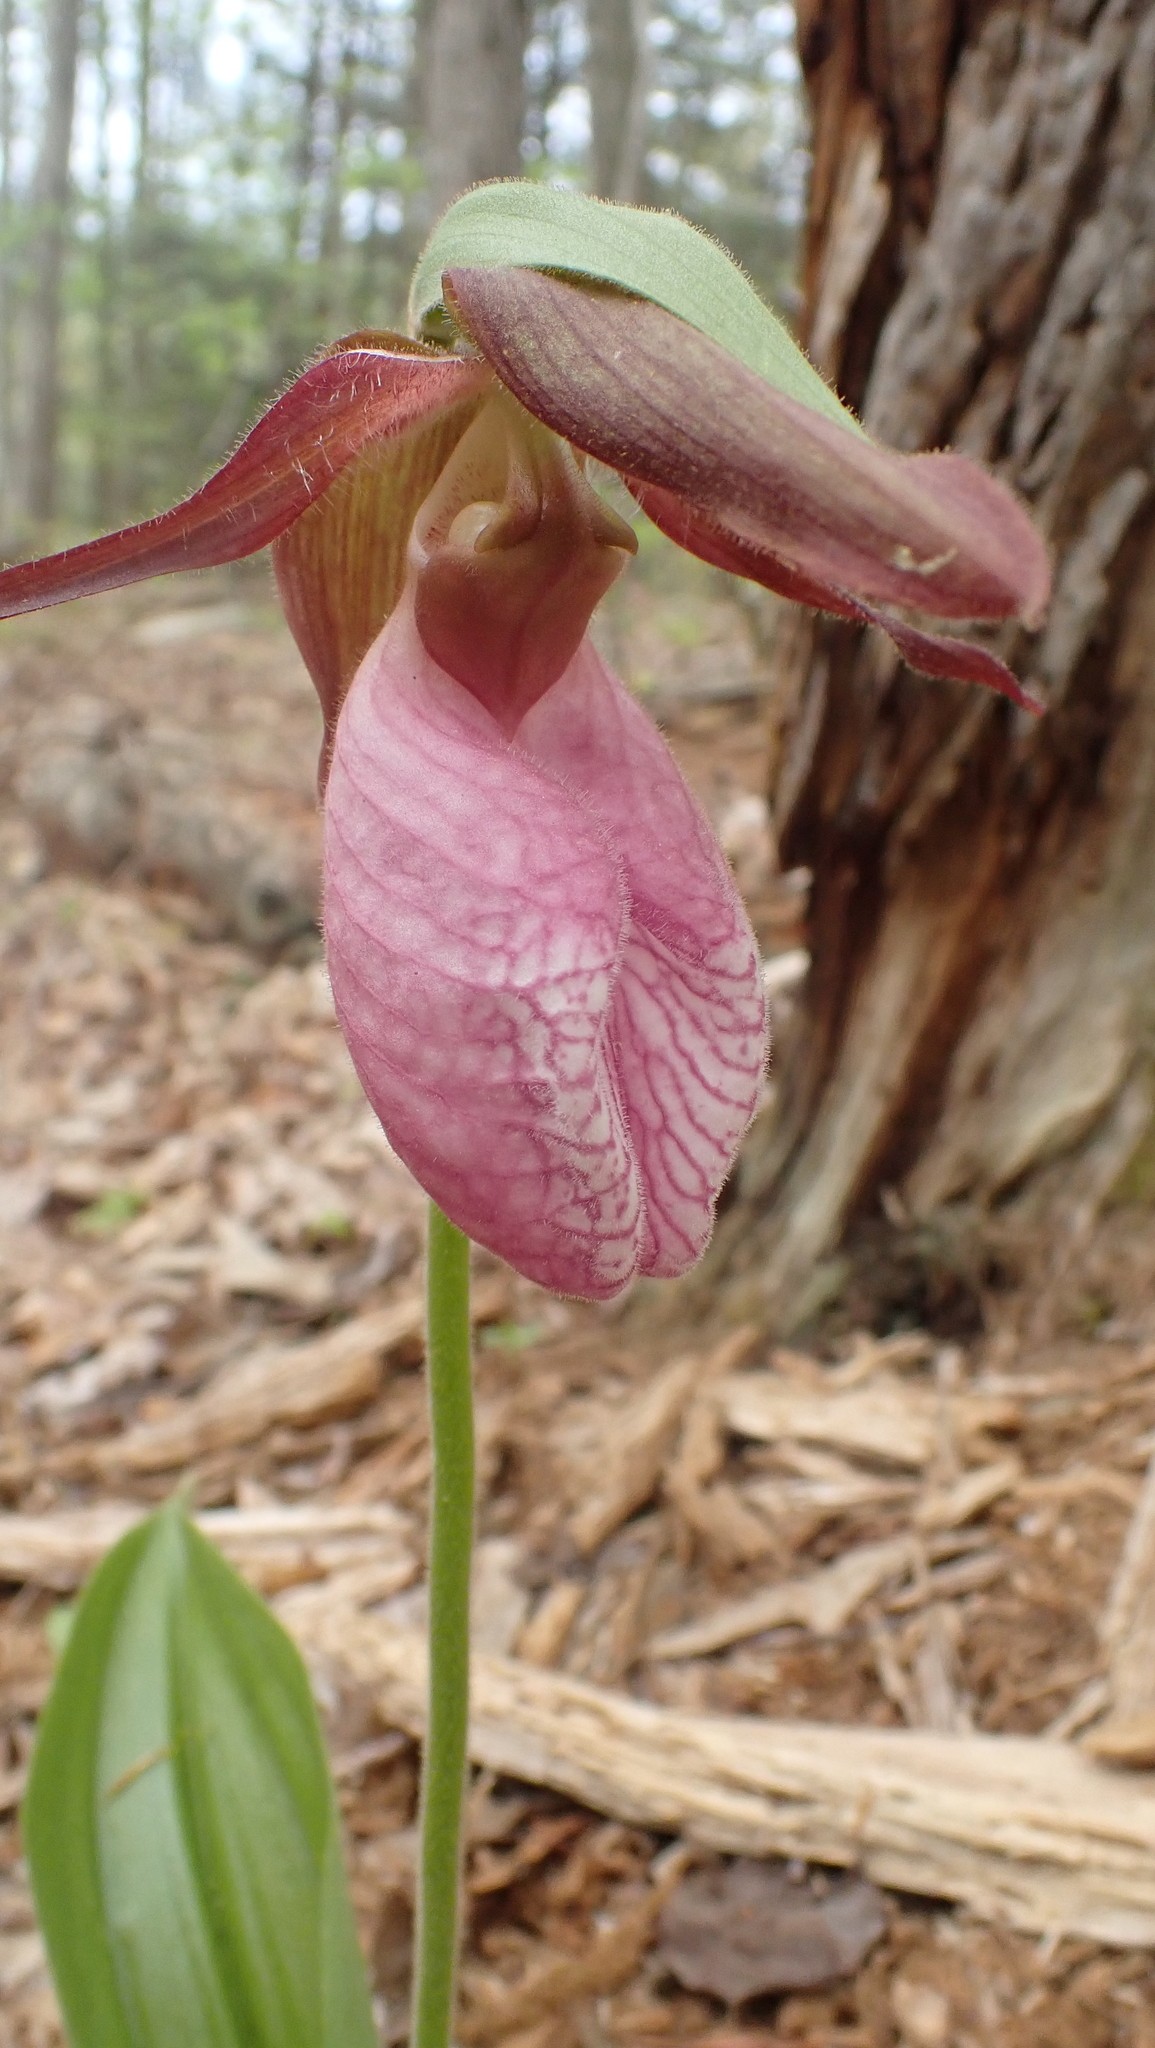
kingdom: Plantae
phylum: Tracheophyta
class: Liliopsida
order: Asparagales
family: Orchidaceae
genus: Cypripedium
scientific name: Cypripedium acaule
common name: Pink lady's-slipper
